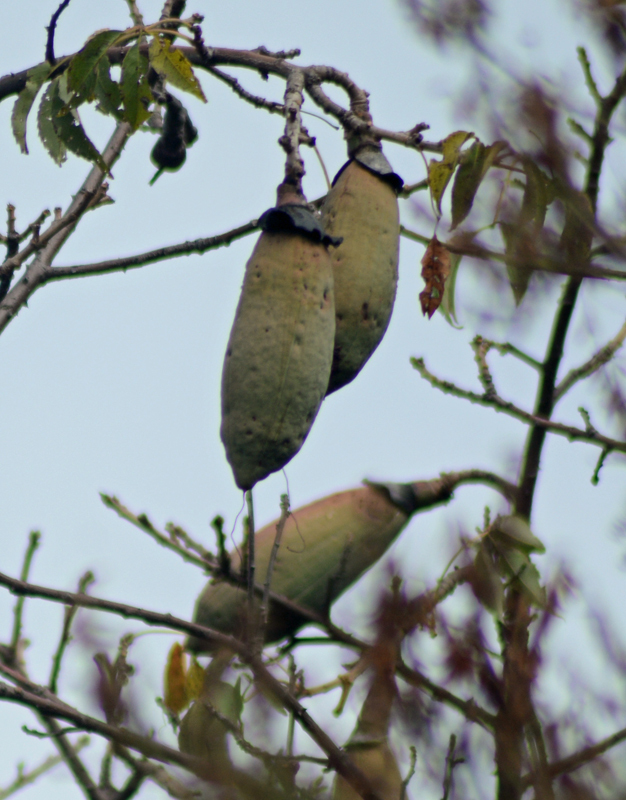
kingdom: Plantae
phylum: Tracheophyta
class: Magnoliopsida
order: Malvales
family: Malvaceae
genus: Ceiba
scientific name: Ceiba aesculifolia
